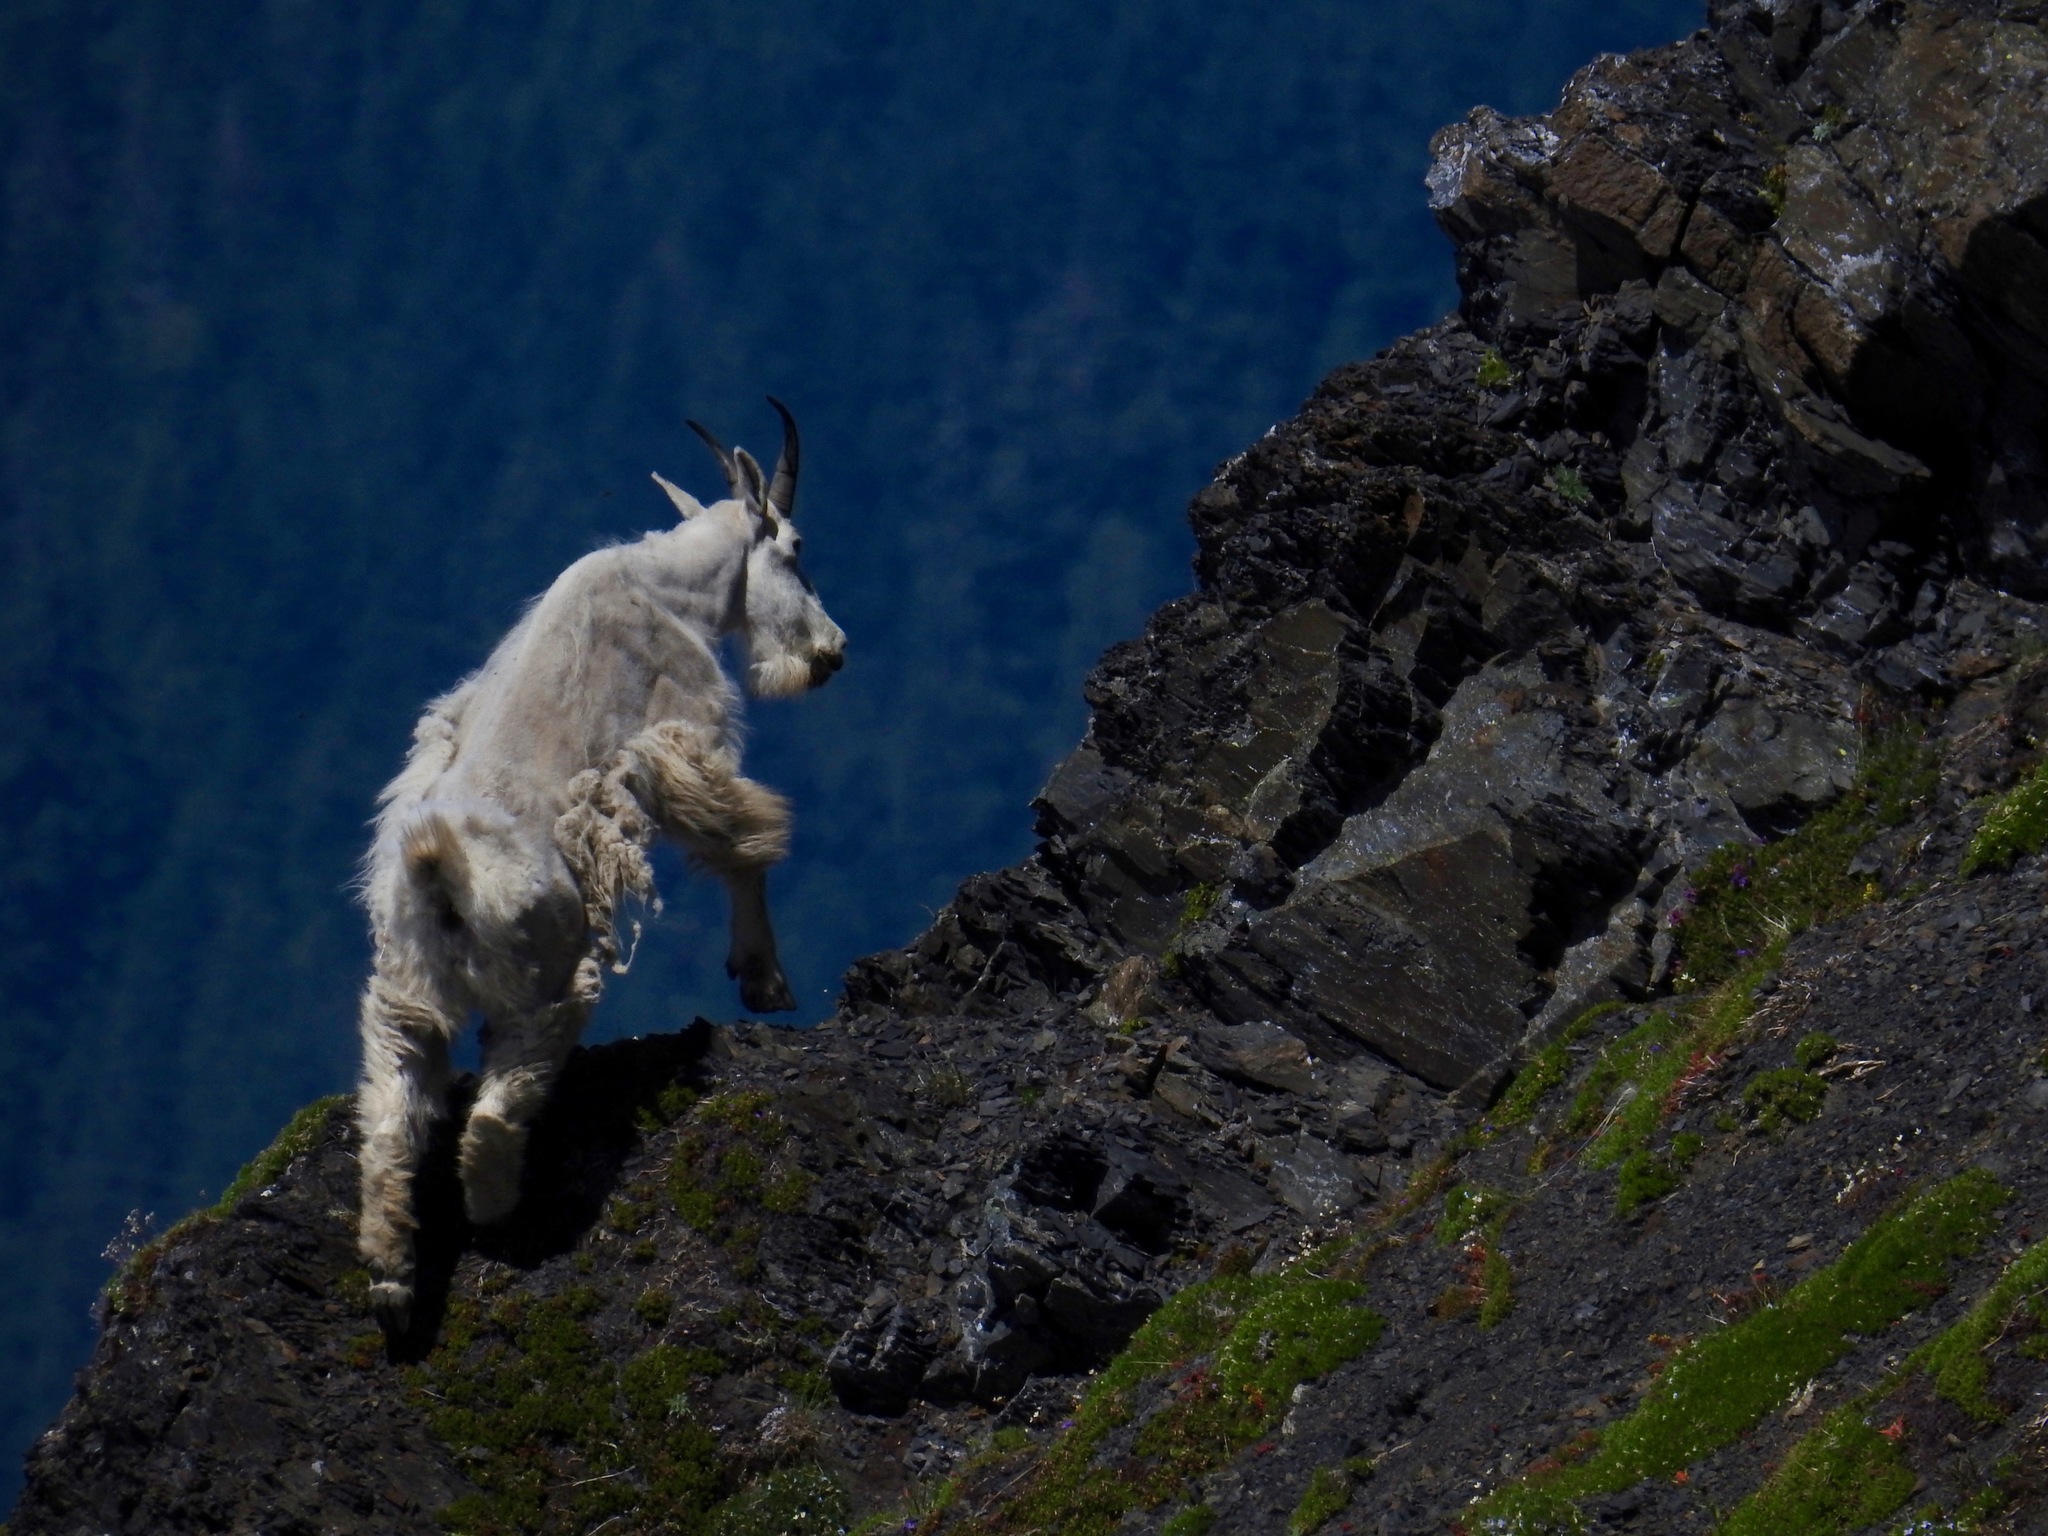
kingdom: Animalia
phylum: Chordata
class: Mammalia
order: Artiodactyla
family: Bovidae
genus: Oreamnos
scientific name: Oreamnos americanus
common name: Mountain goat
